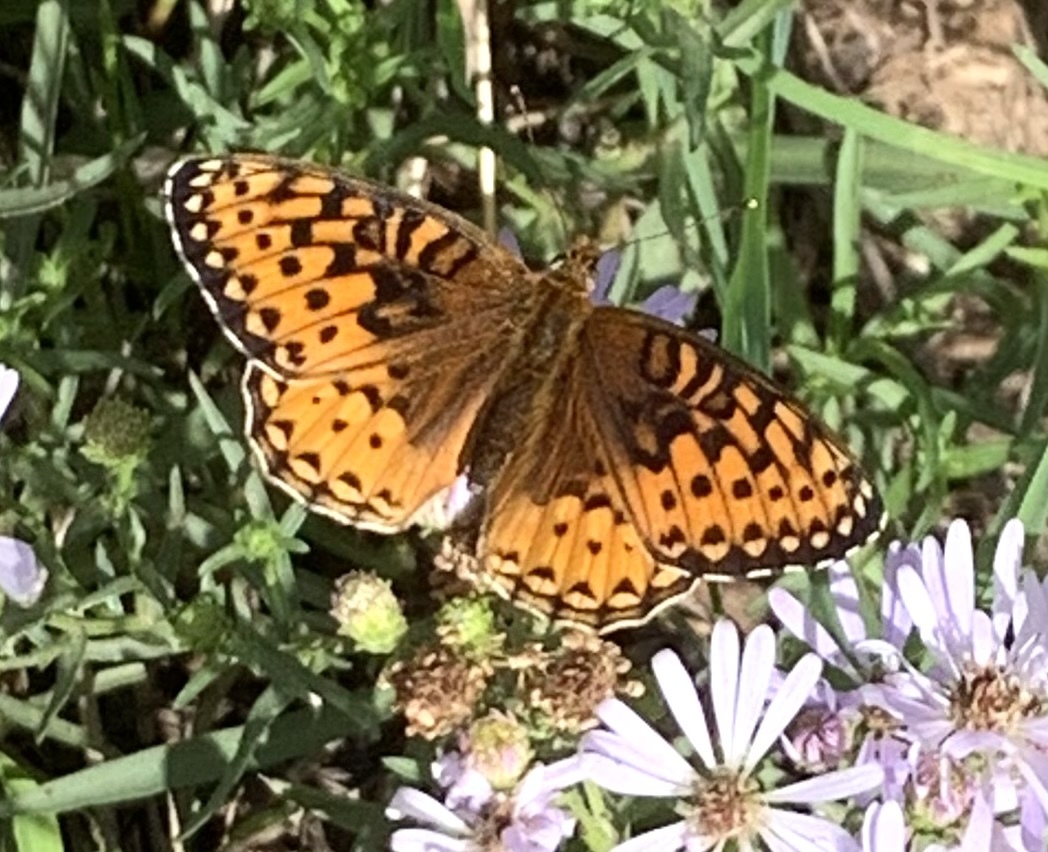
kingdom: Animalia
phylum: Arthropoda
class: Insecta
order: Lepidoptera
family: Nymphalidae
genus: Speyeria
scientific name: Speyeria atlantis
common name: Atlantis fritillary
